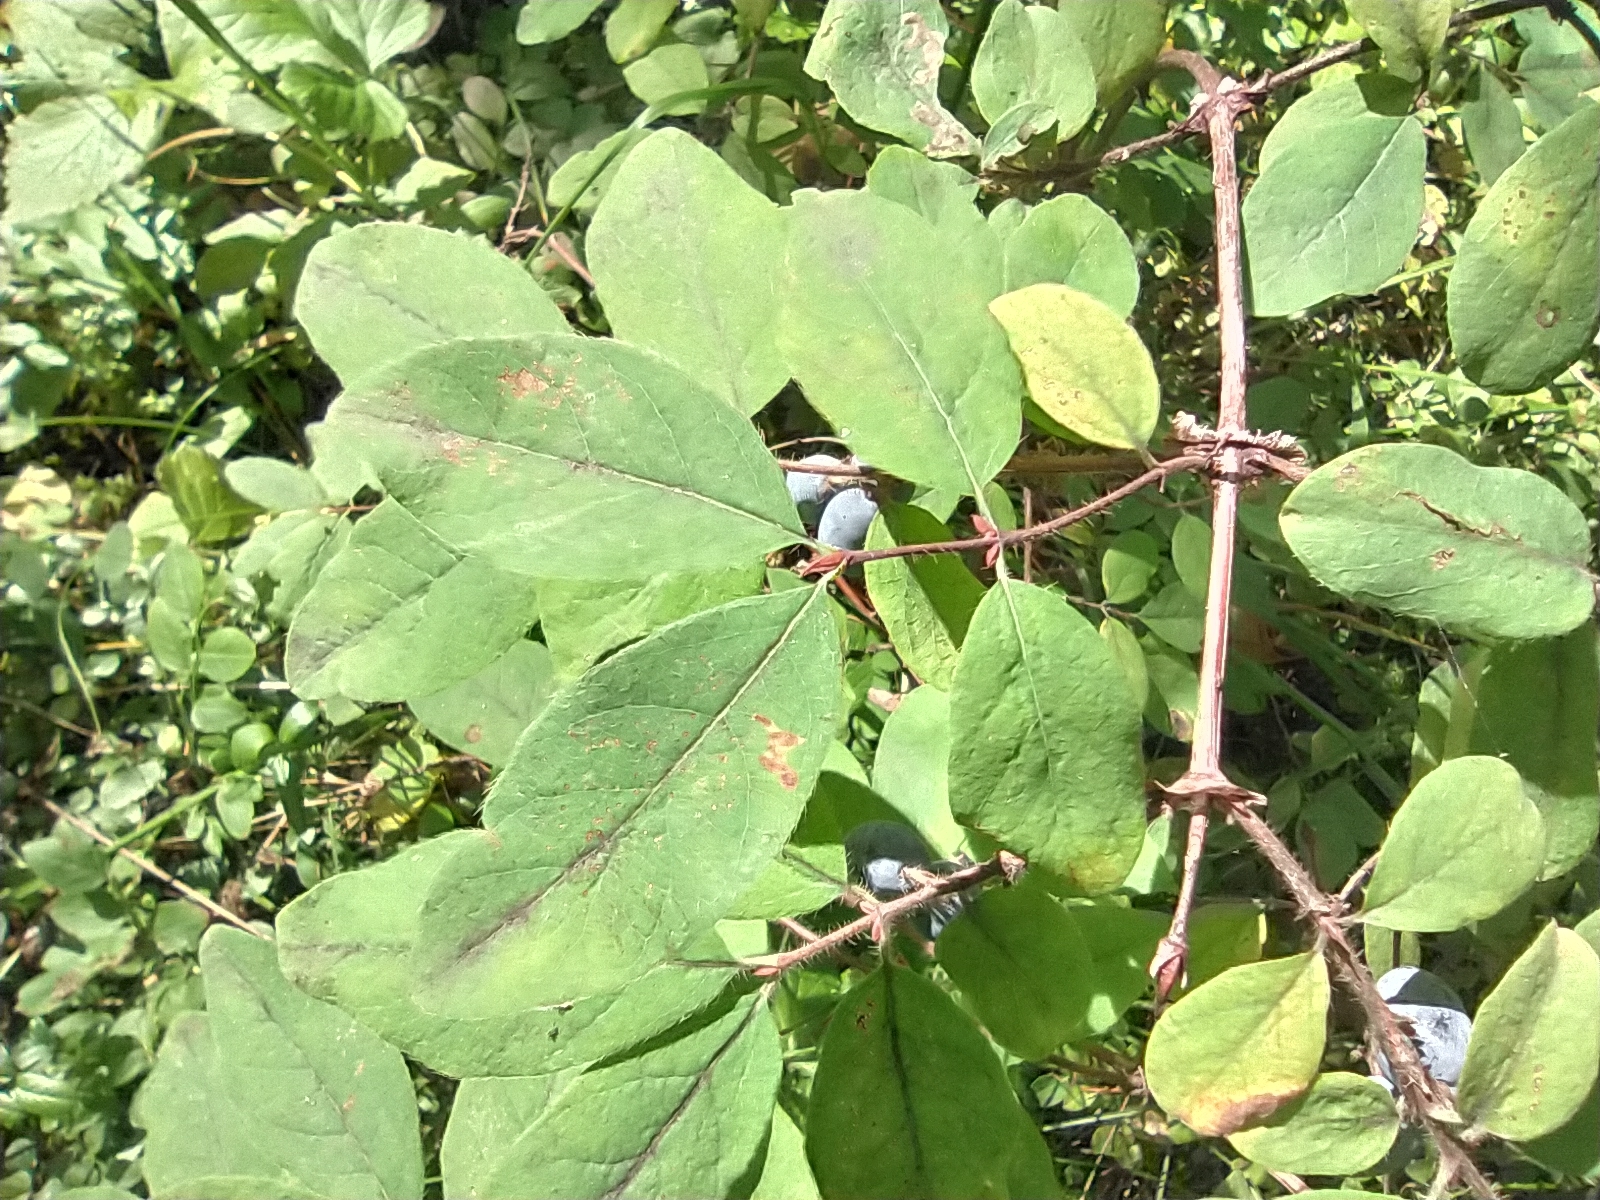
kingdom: Plantae
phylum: Tracheophyta
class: Magnoliopsida
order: Dipsacales
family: Caprifoliaceae
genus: Lonicera
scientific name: Lonicera caerulea
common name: Blue honeysuckle
